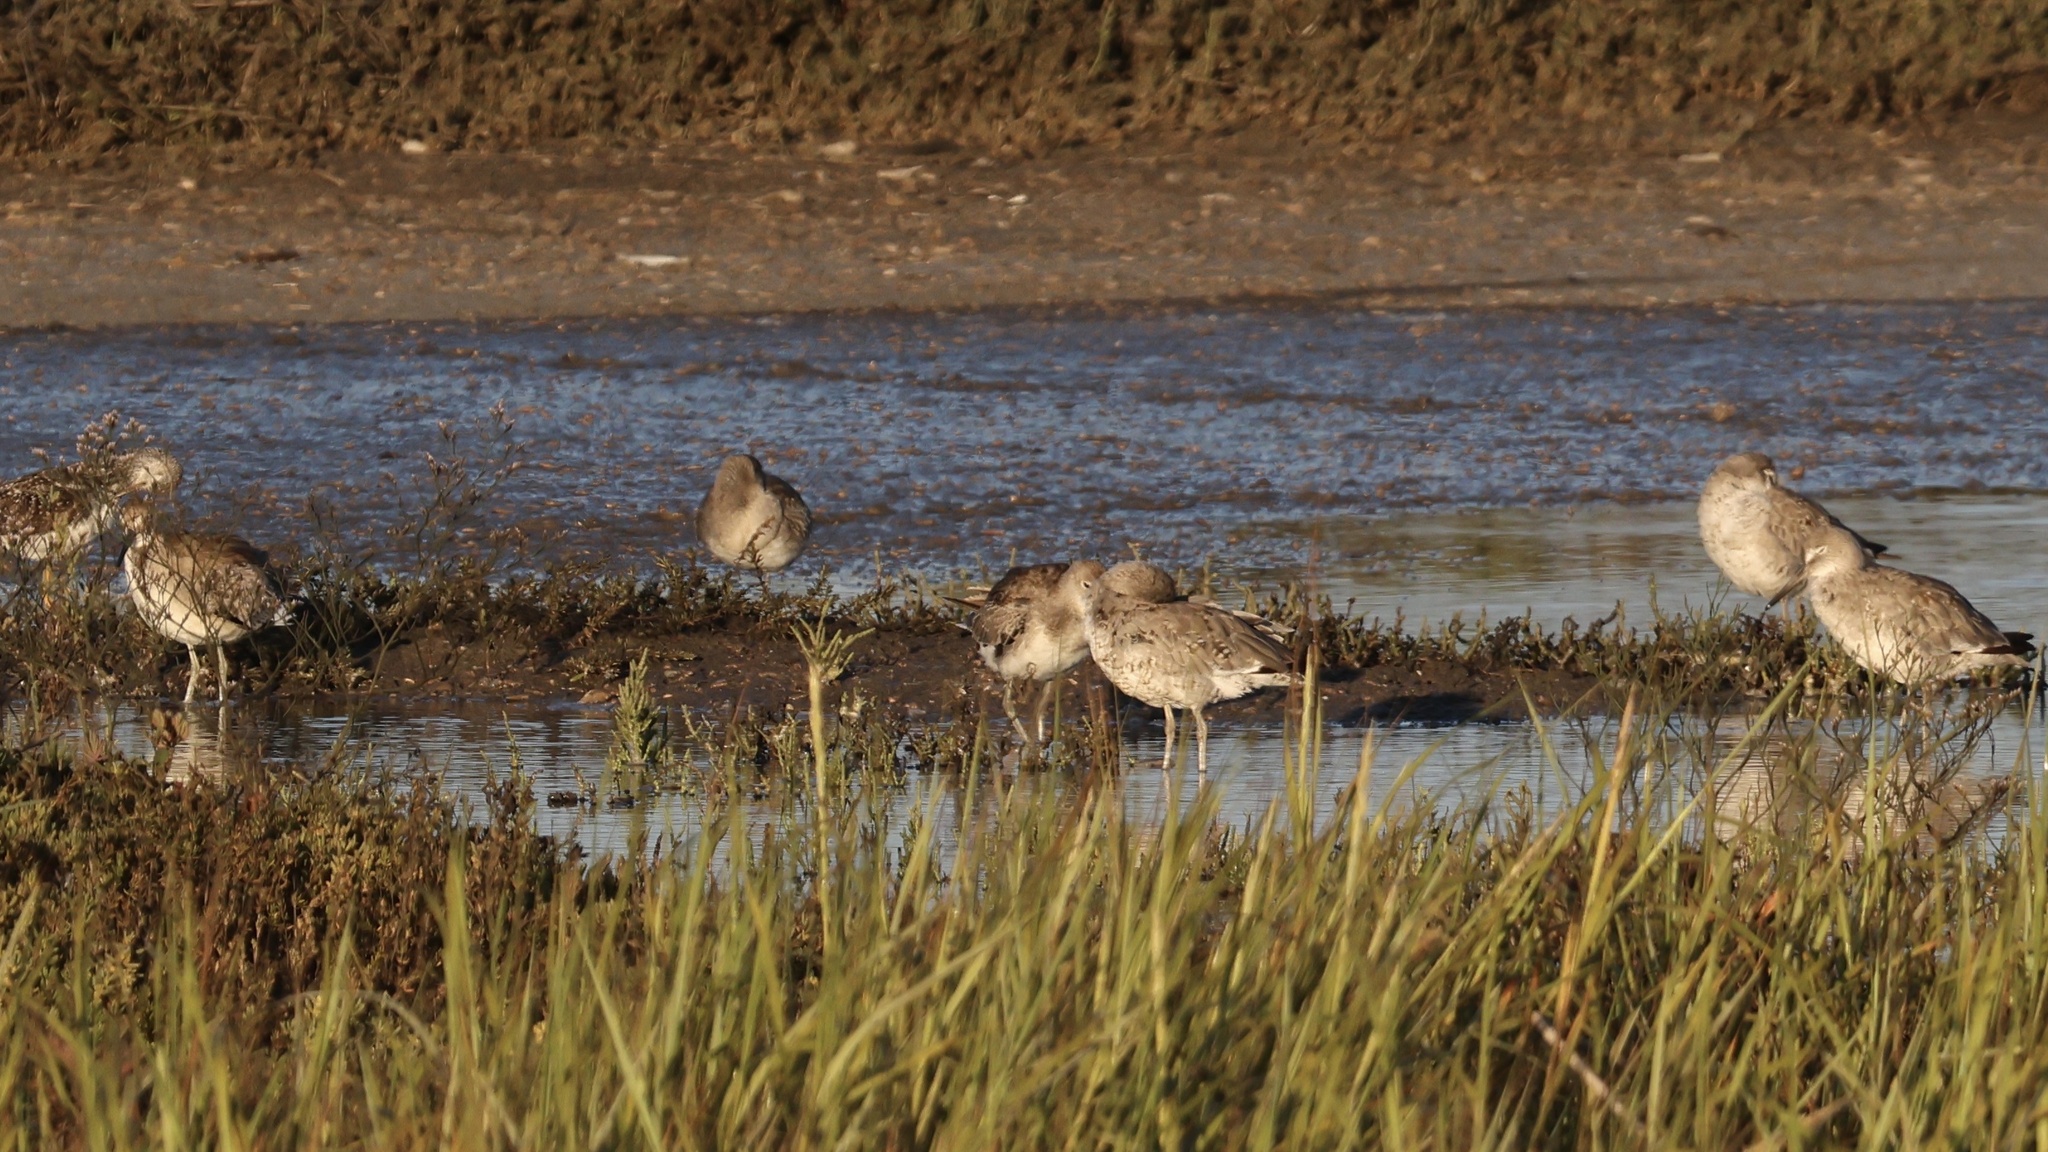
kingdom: Animalia
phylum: Chordata
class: Aves
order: Charadriiformes
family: Scolopacidae
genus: Tringa
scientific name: Tringa semipalmata
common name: Willet
